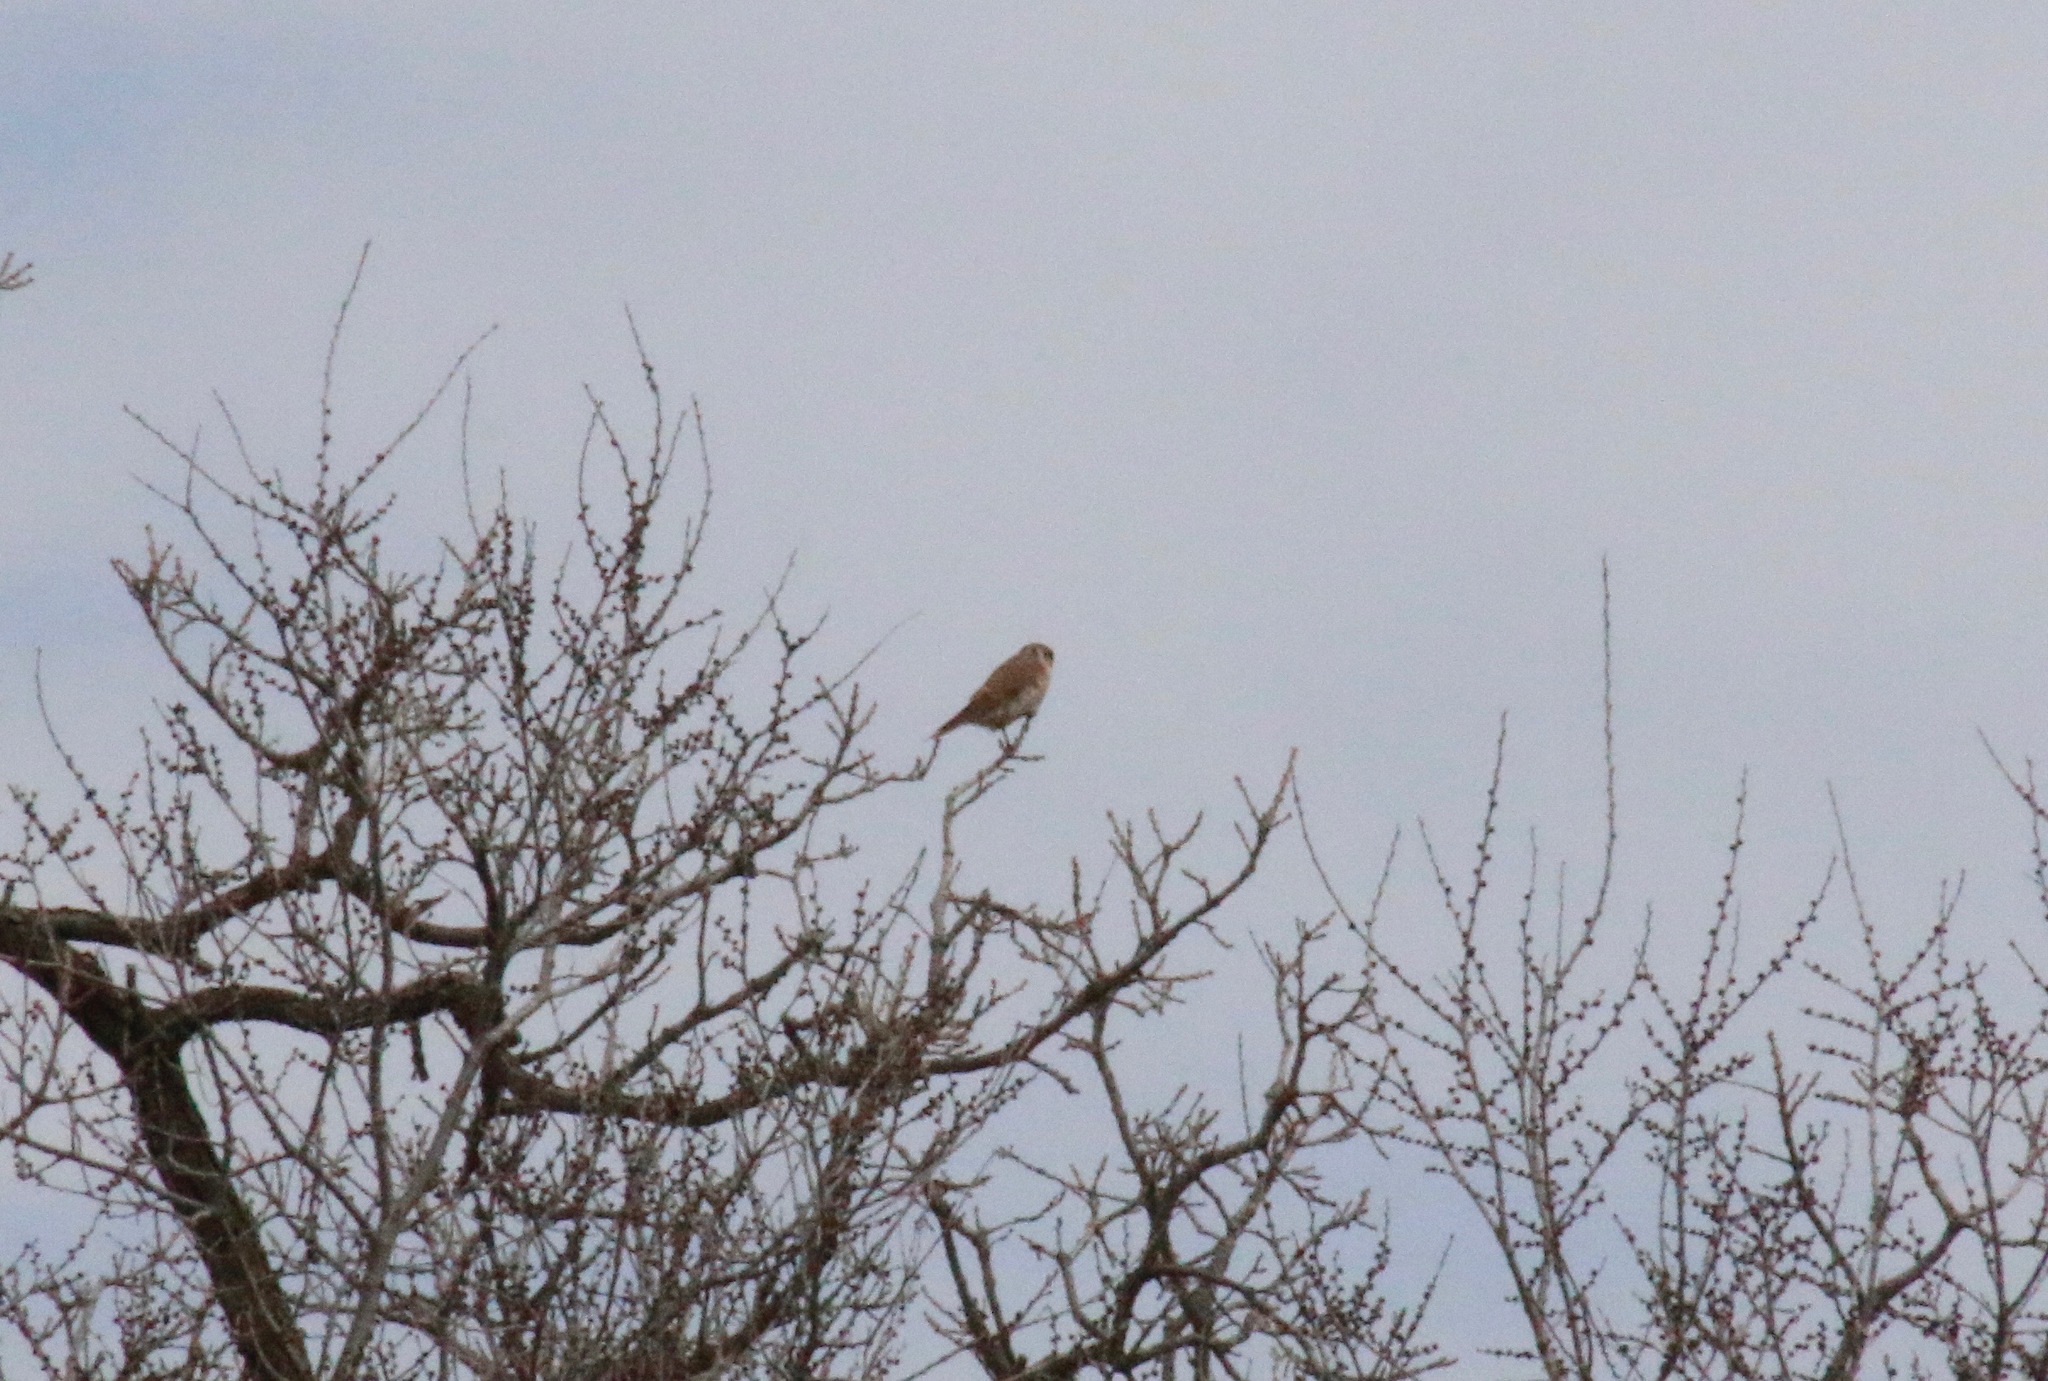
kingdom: Animalia
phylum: Chordata
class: Aves
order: Falconiformes
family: Falconidae
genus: Falco
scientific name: Falco sparverius
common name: American kestrel
